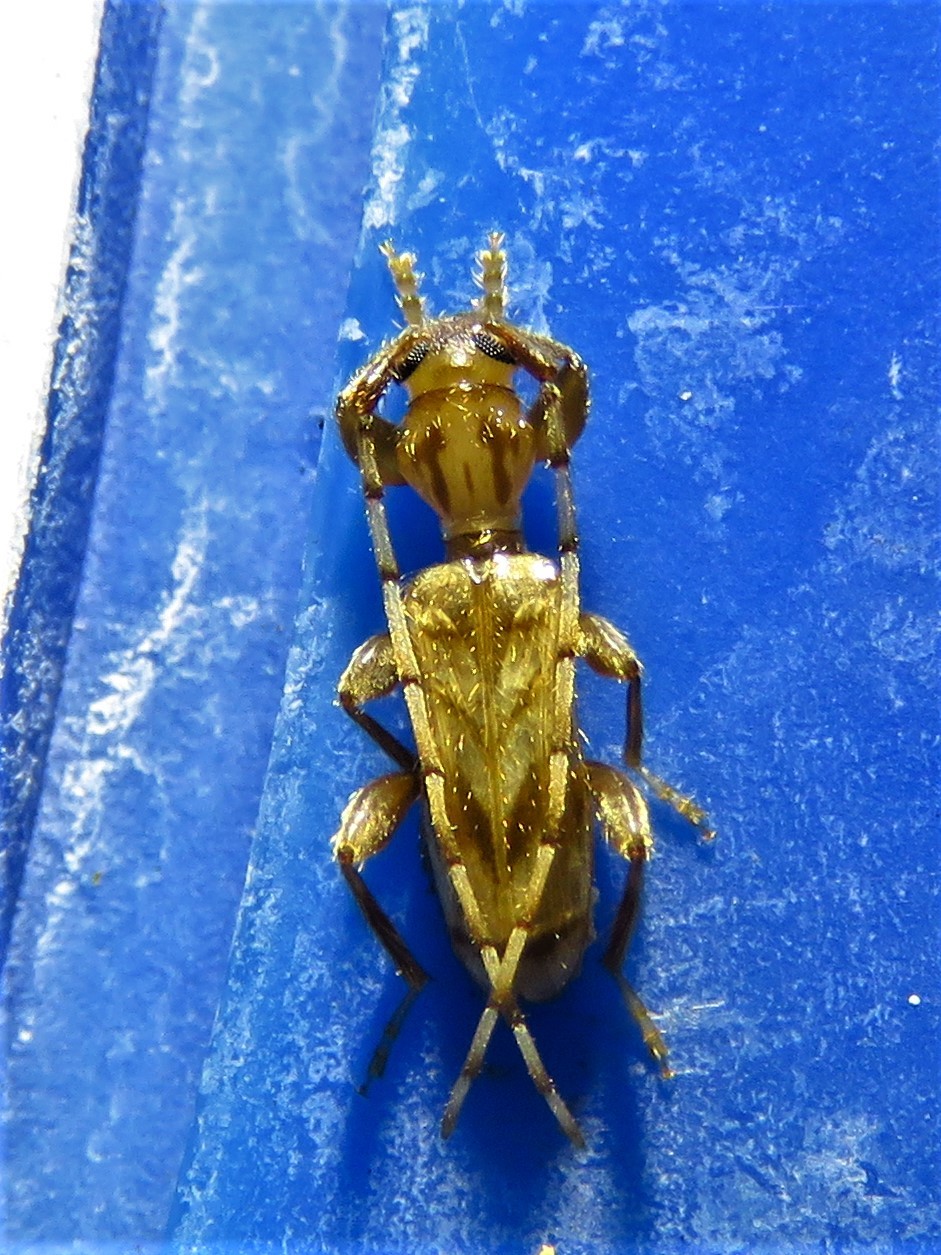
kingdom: Animalia
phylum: Arthropoda
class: Insecta
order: Coleoptera
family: Cerambycidae
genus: Obrium
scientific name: Obrium maculatum
